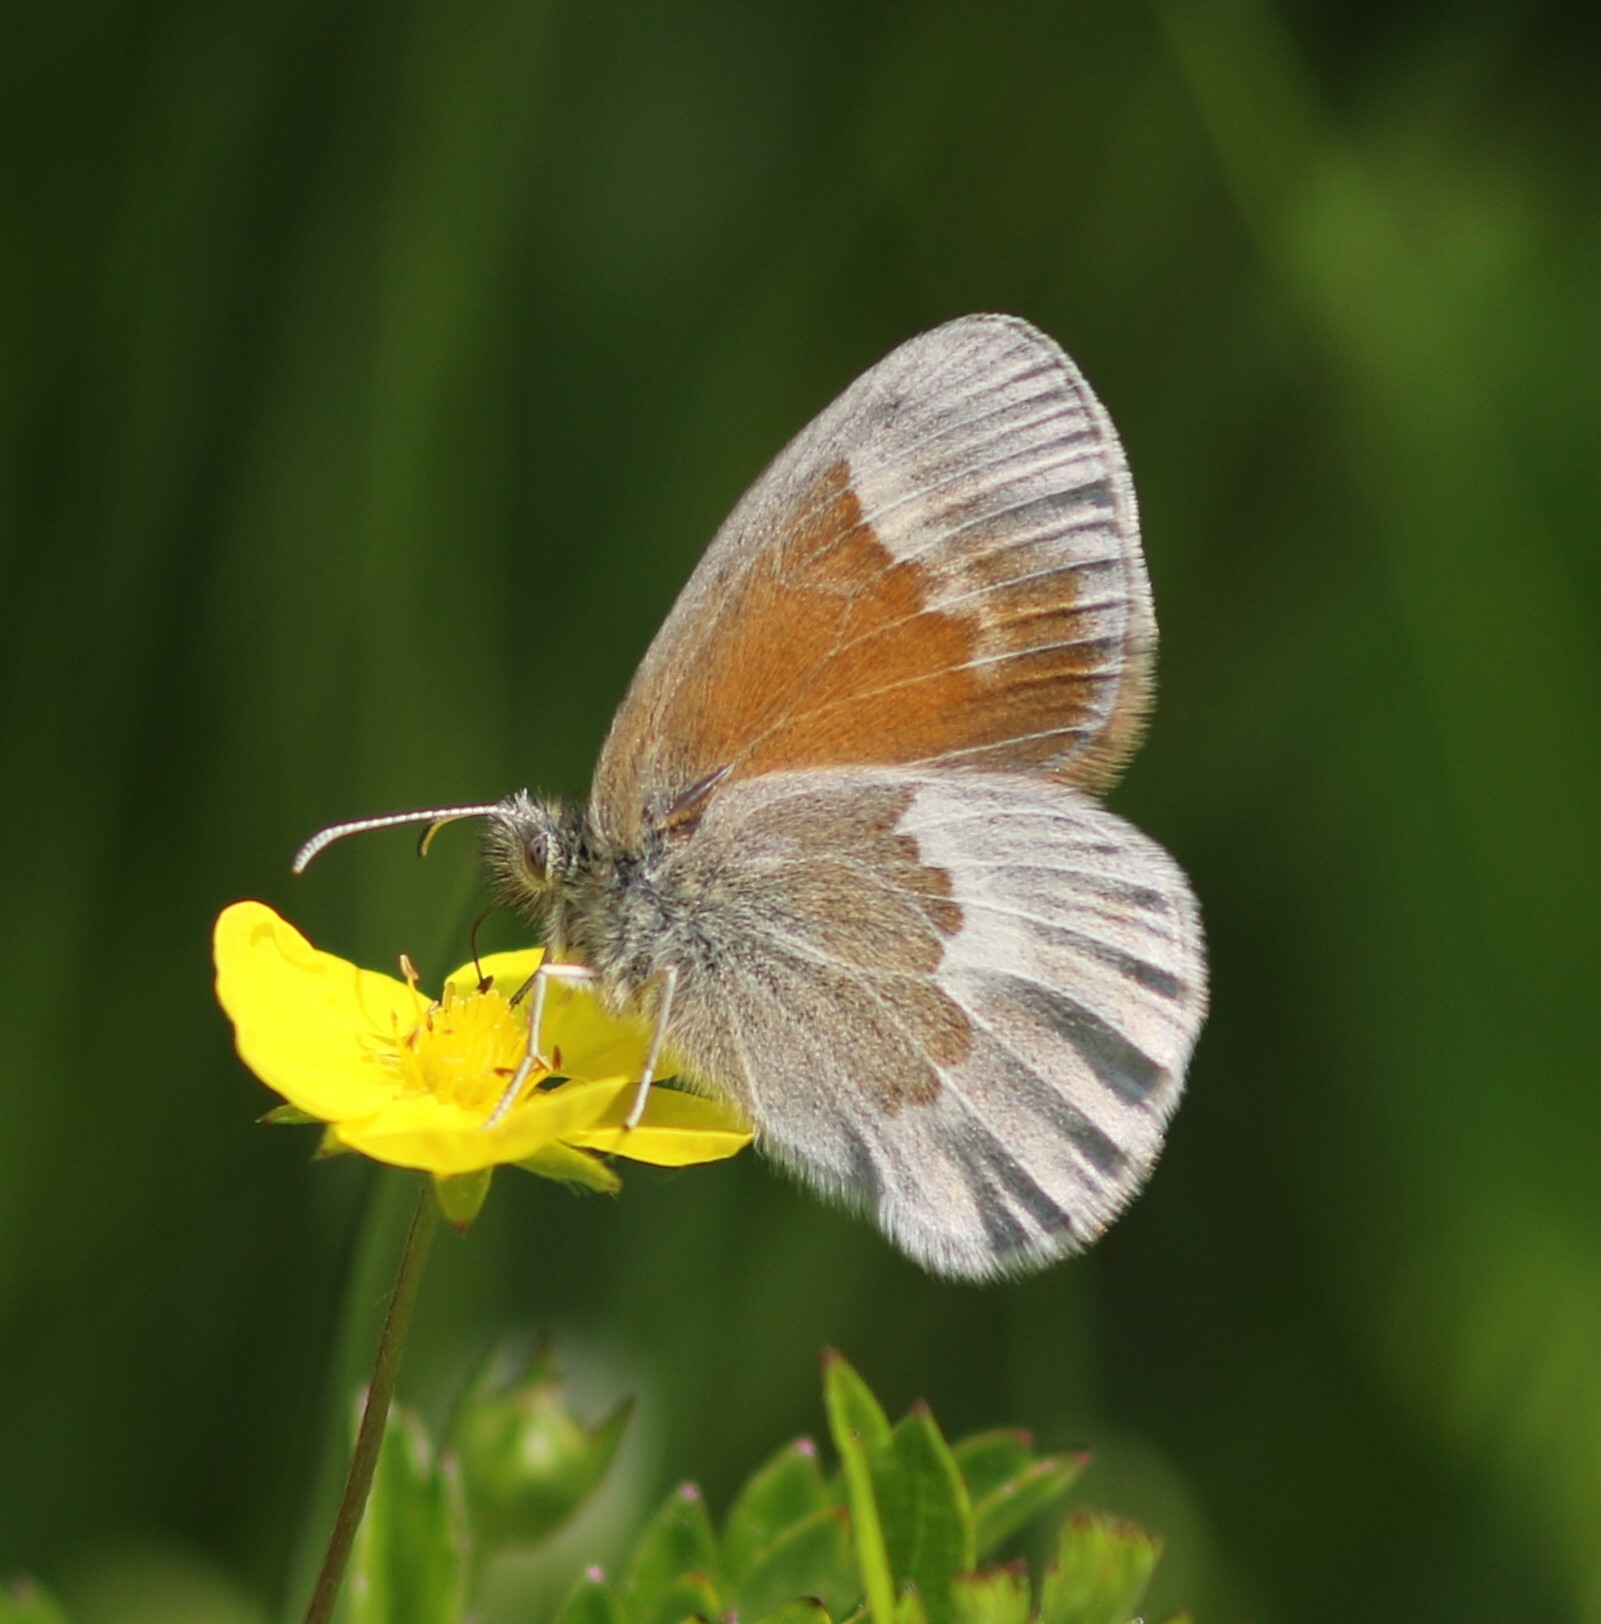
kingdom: Animalia
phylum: Arthropoda
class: Insecta
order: Lepidoptera
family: Nymphalidae
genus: Coenonympha
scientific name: Coenonympha california
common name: Common ringlet
